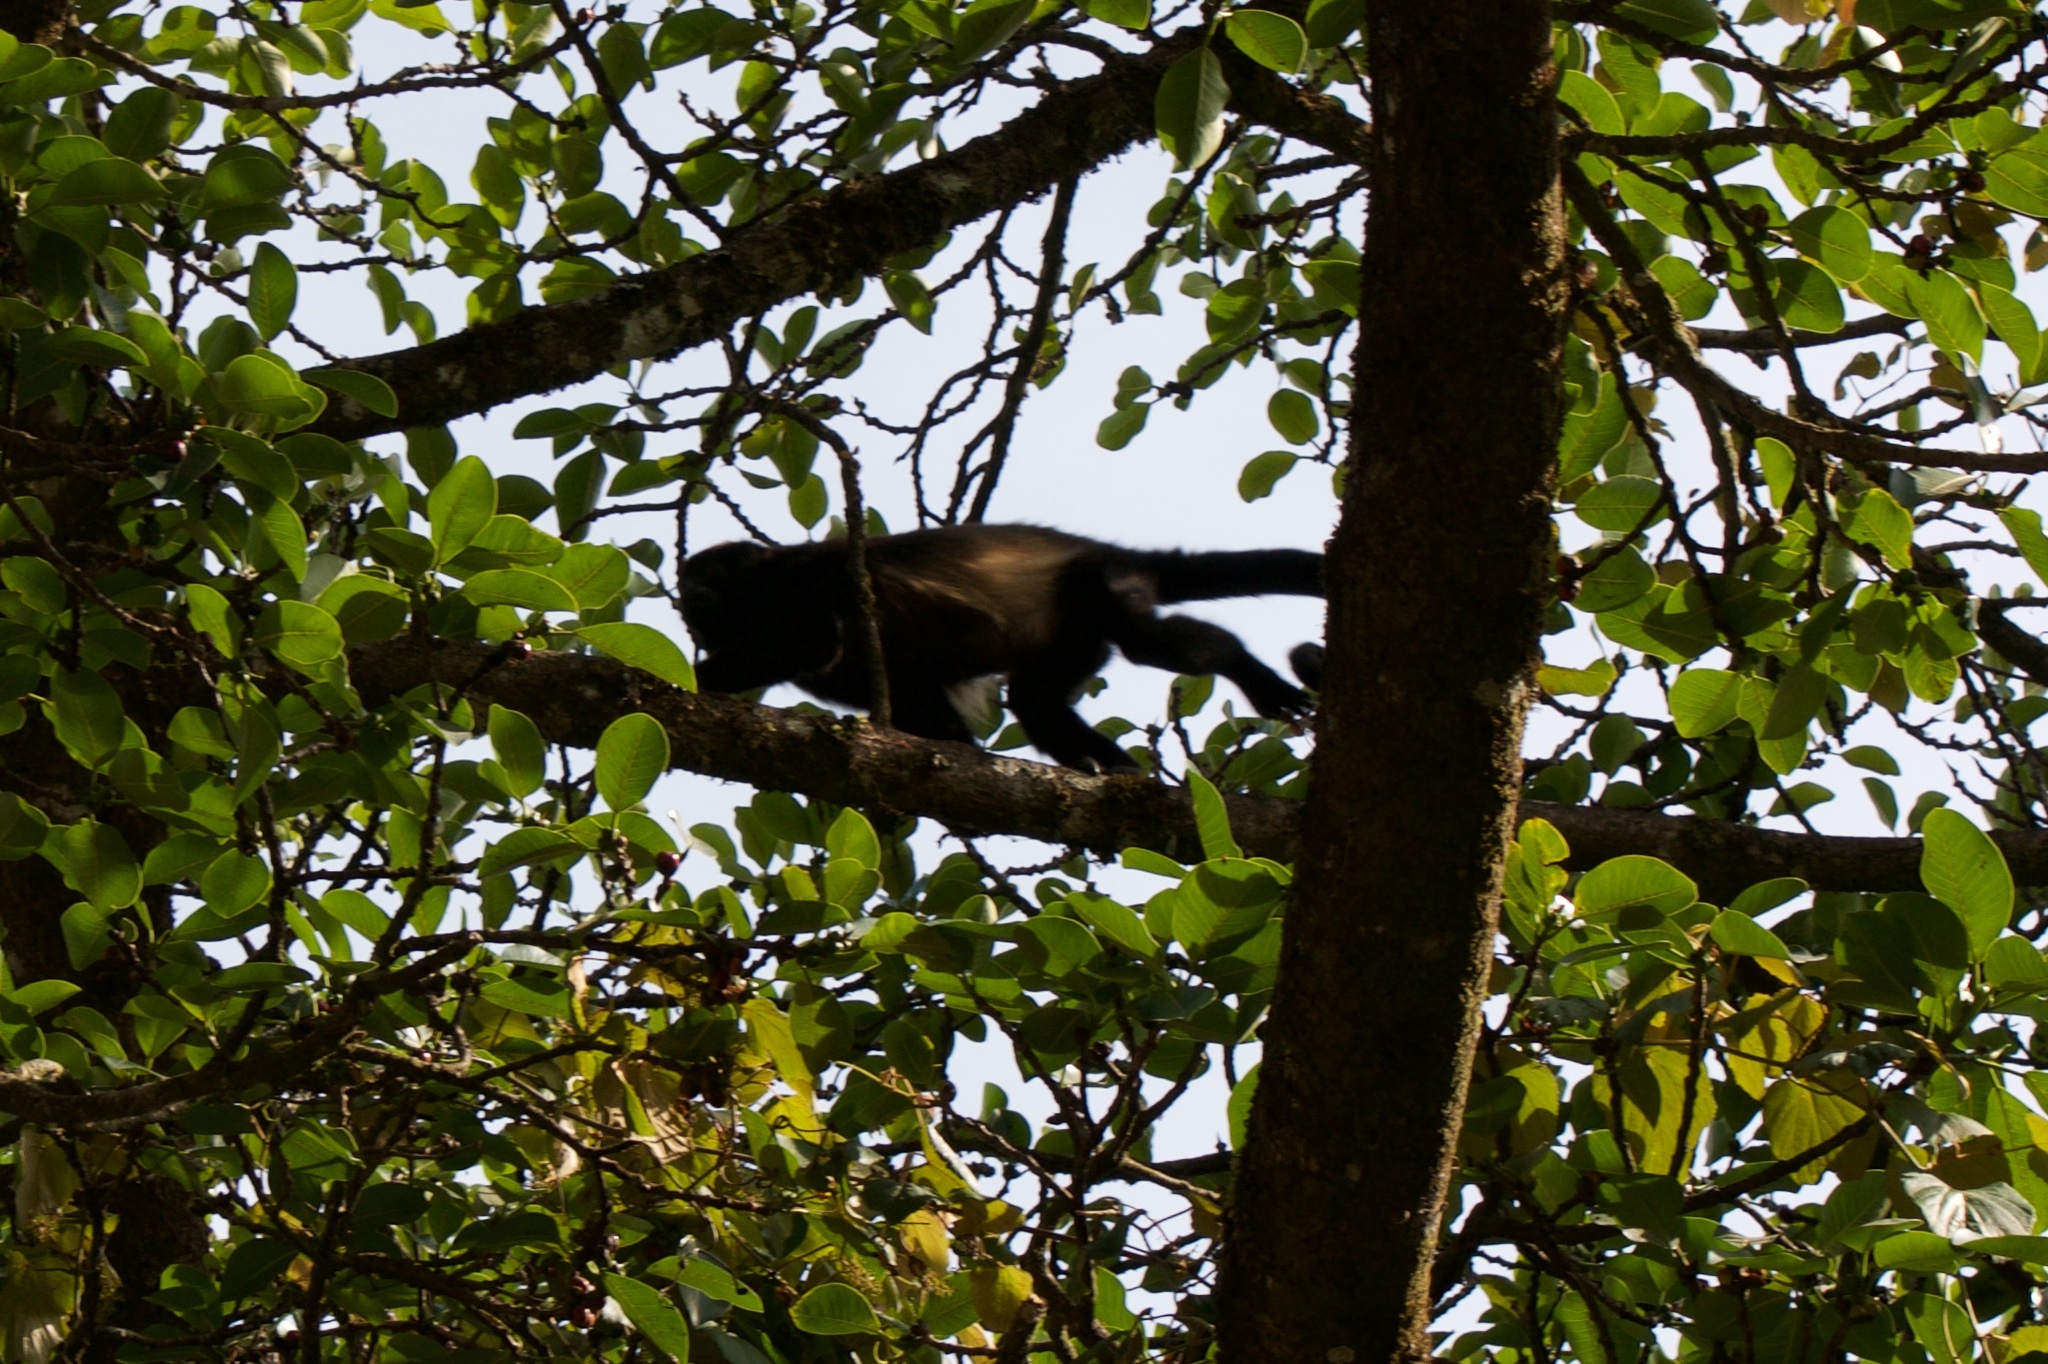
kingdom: Animalia
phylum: Chordata
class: Mammalia
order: Primates
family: Atelidae
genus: Alouatta
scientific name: Alouatta palliata
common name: Mantled howler
